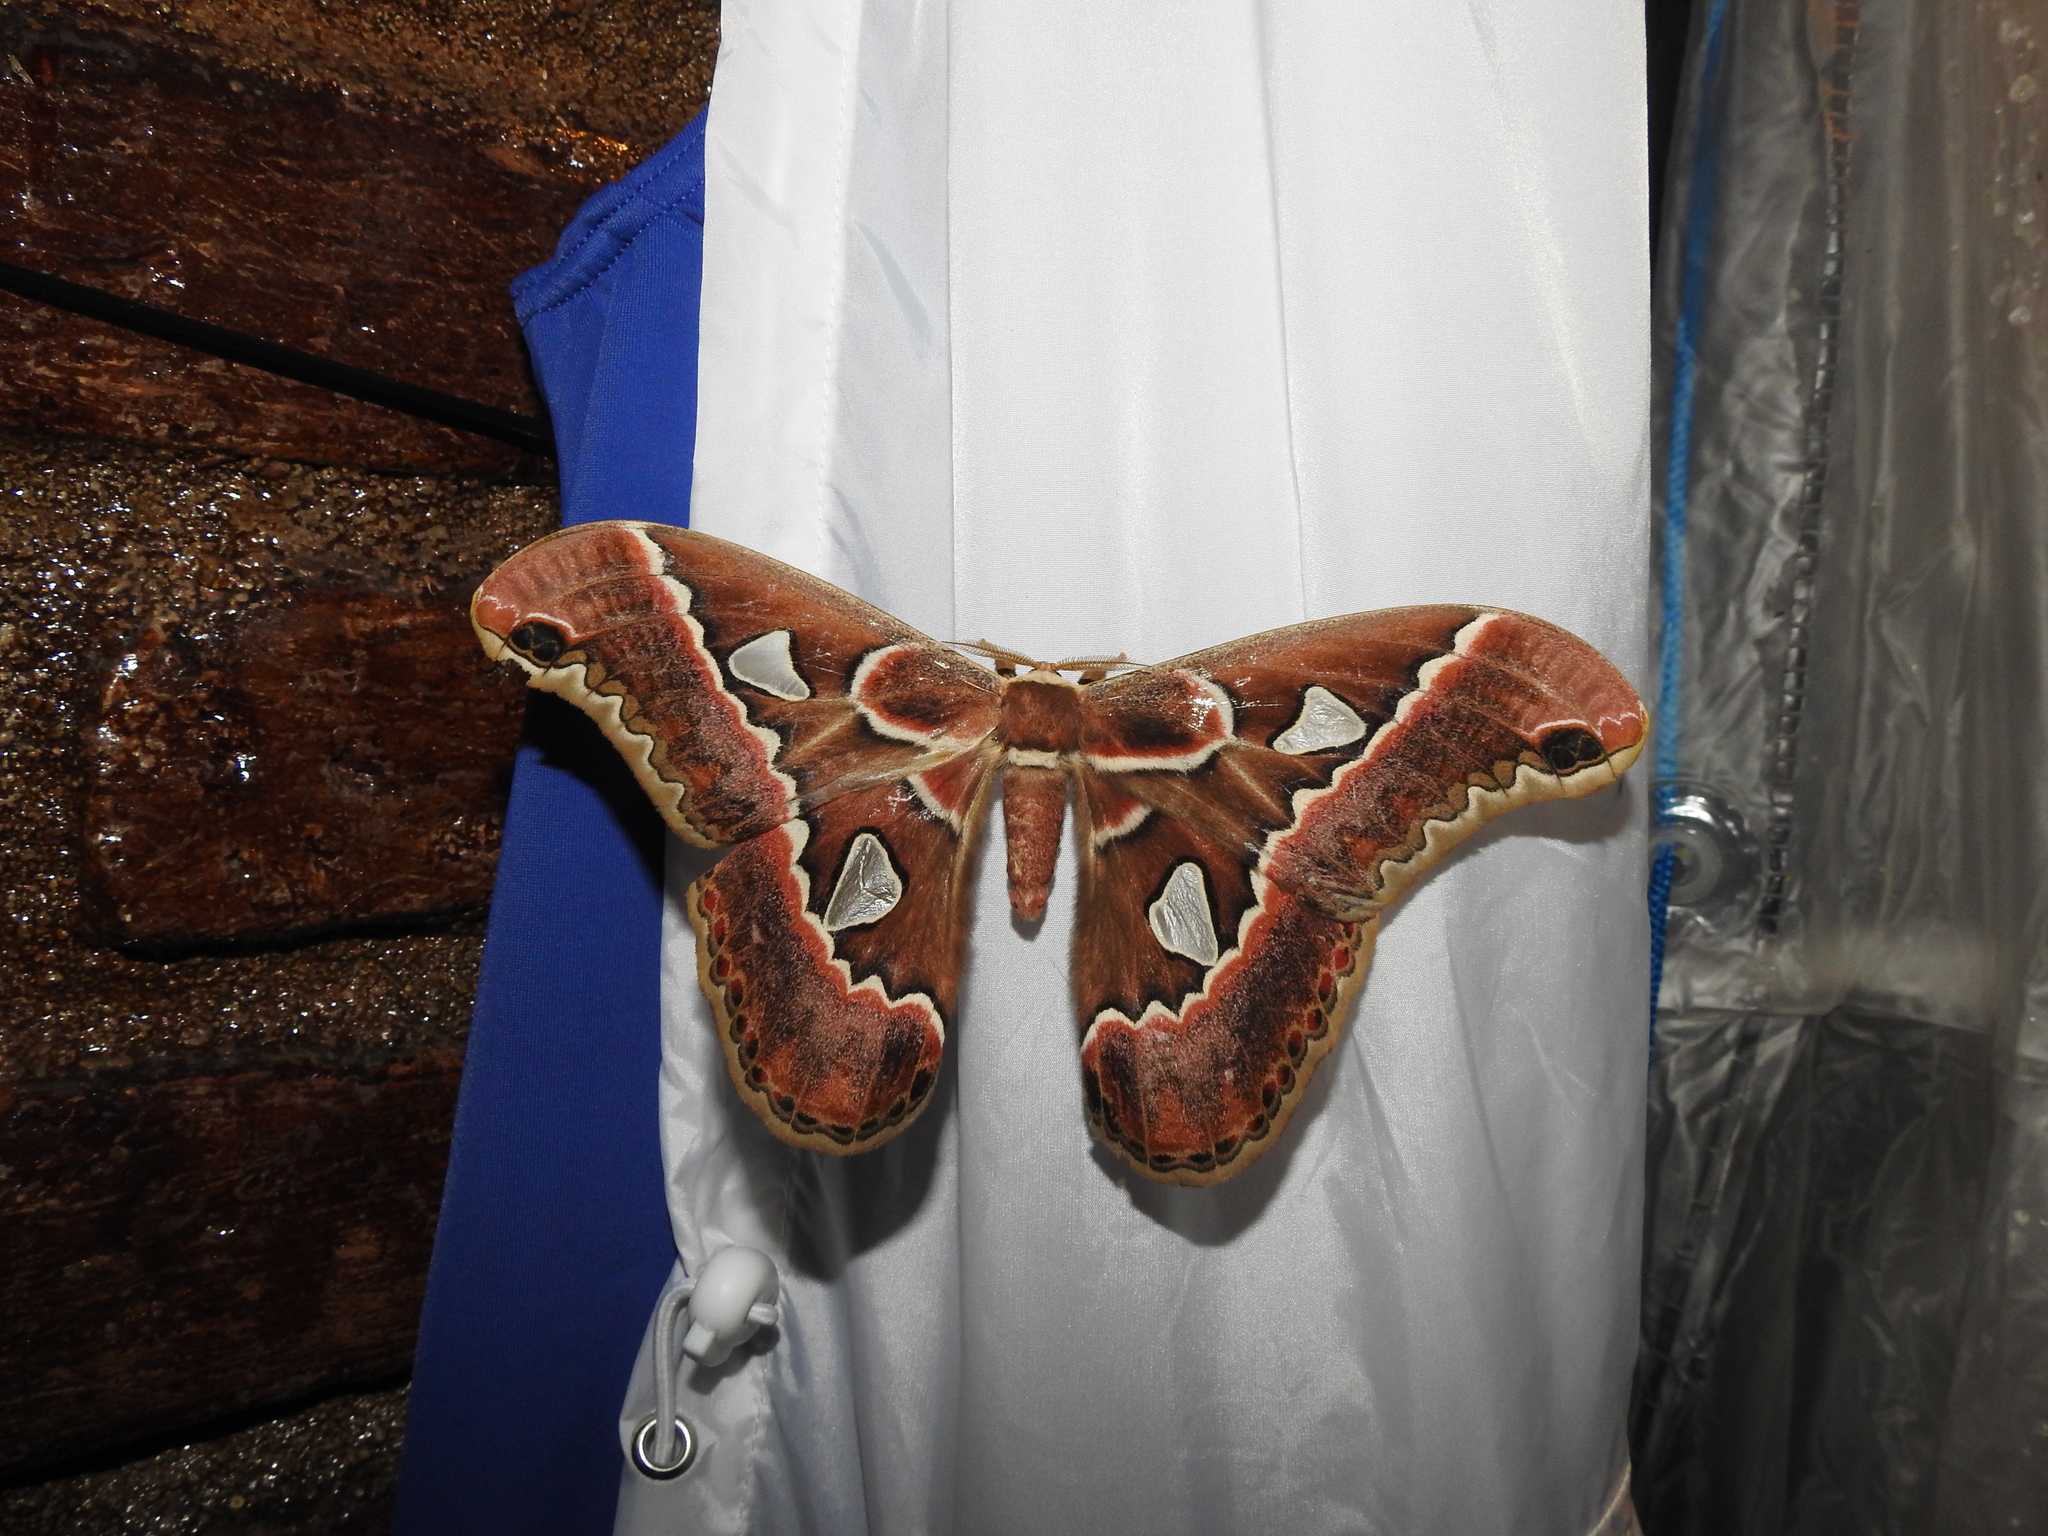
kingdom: Animalia
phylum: Arthropoda
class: Insecta
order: Lepidoptera
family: Saturniidae
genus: Rothschildia
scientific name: Rothschildia cinctus
